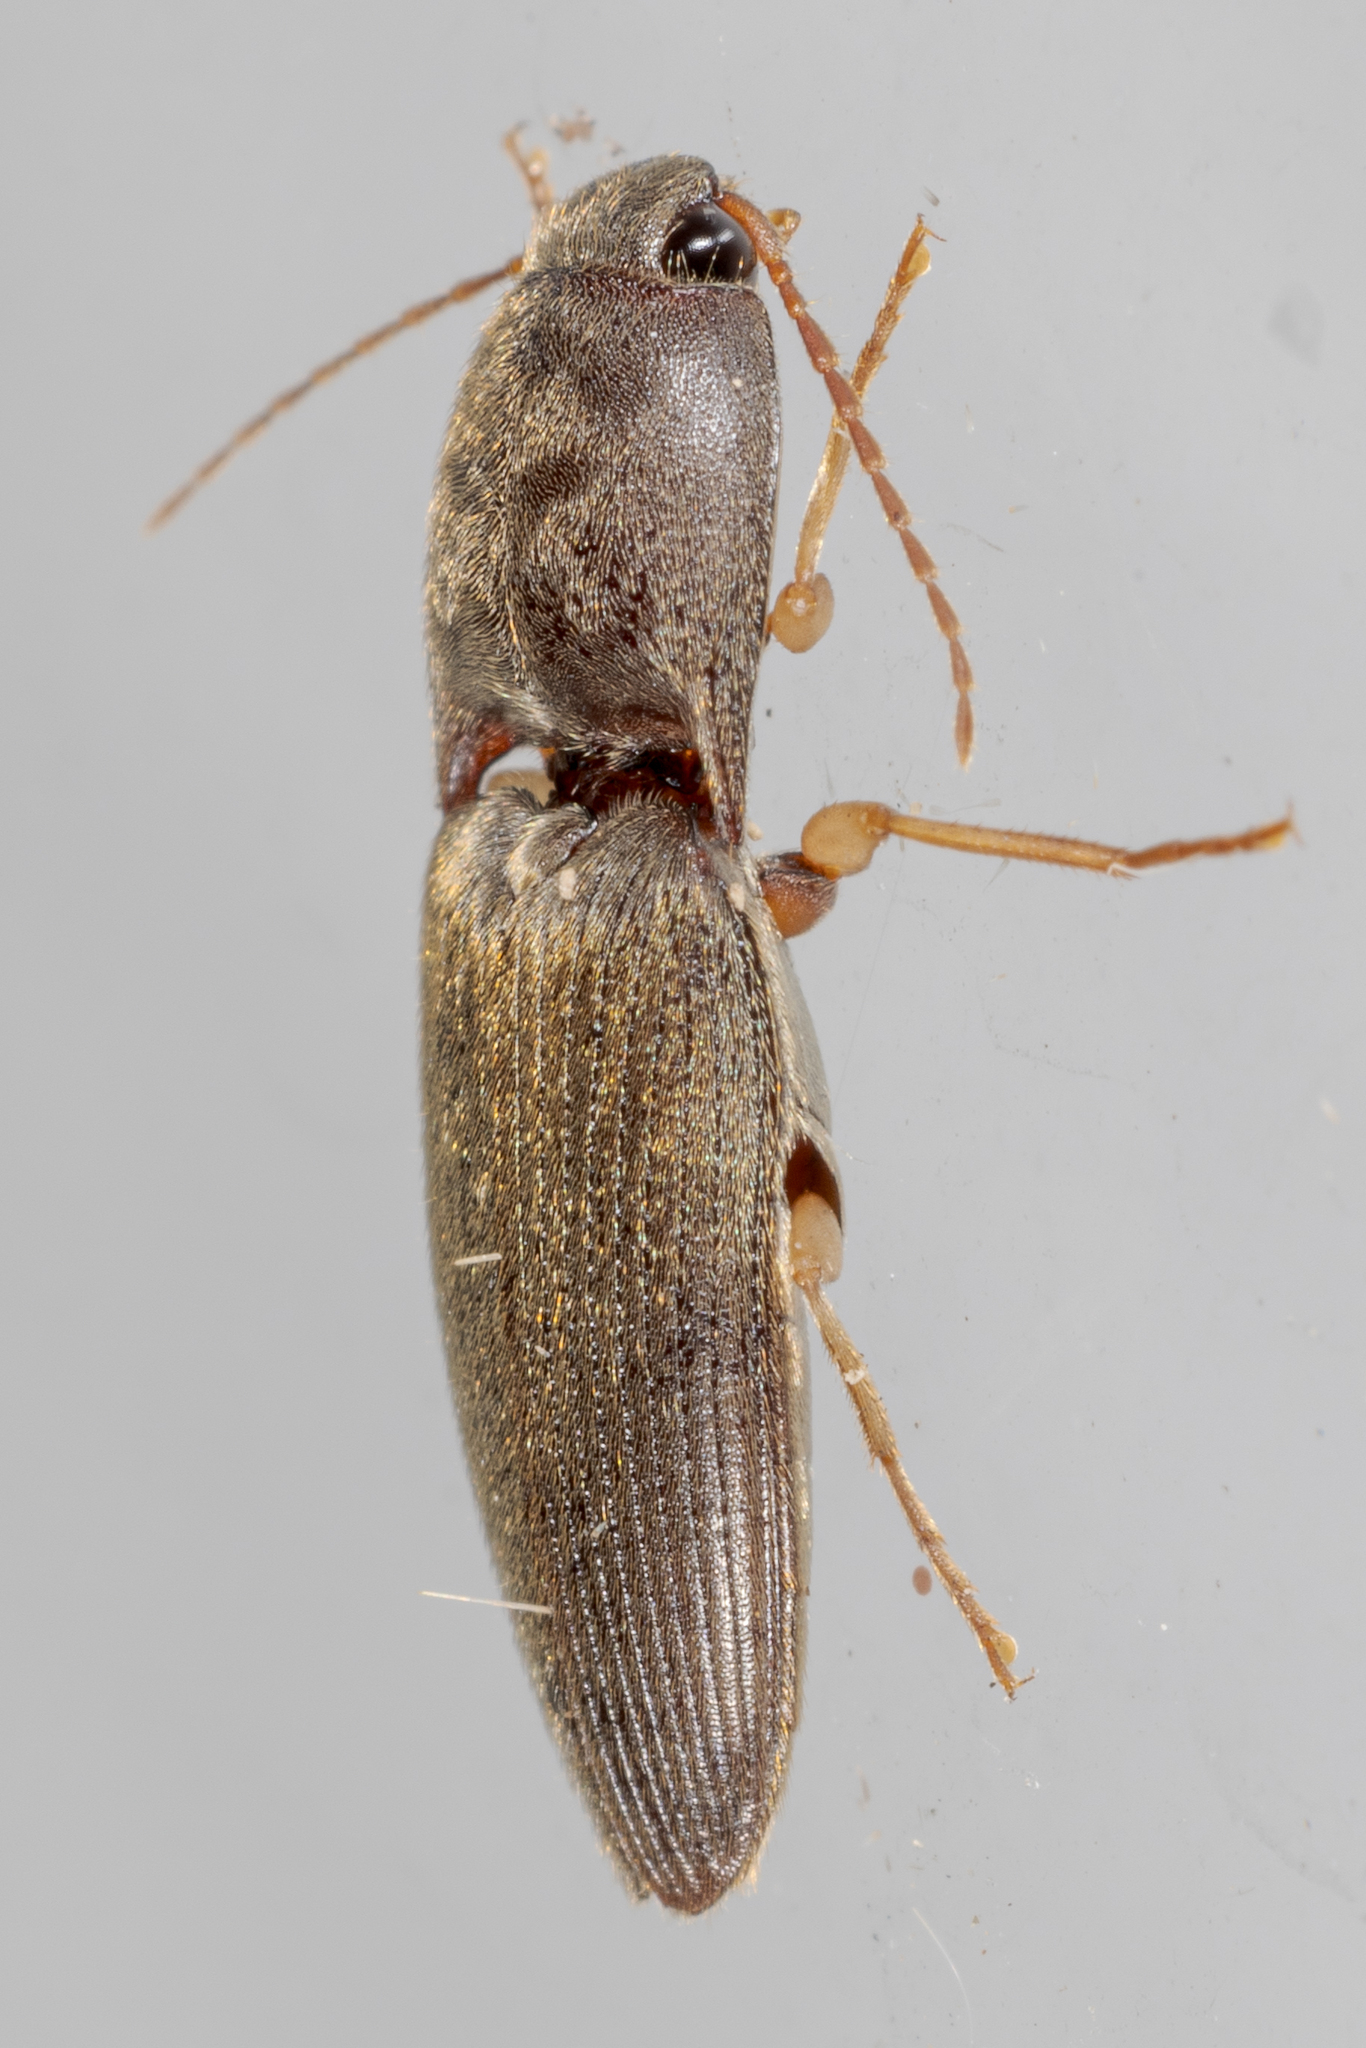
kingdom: Animalia
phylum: Arthropoda
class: Insecta
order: Coleoptera
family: Elateridae
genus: Conoderus
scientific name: Conoderus exsul
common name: Click beetle
